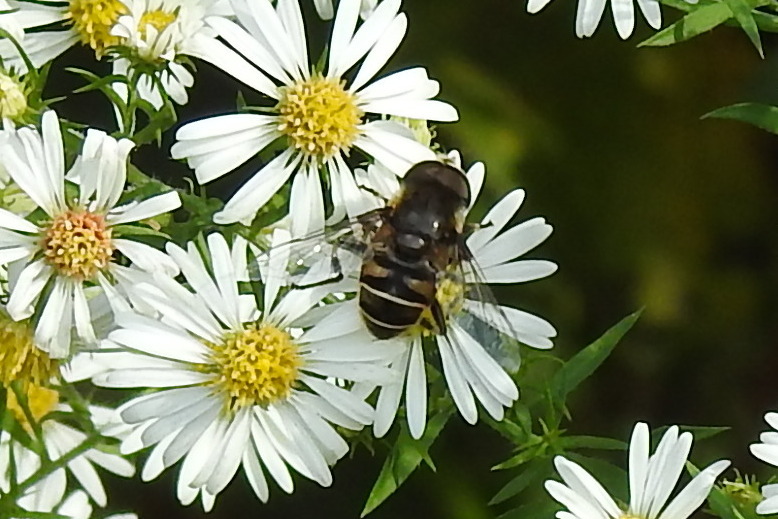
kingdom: Animalia
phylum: Arthropoda
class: Insecta
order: Diptera
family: Syrphidae
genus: Eristalis
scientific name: Eristalis dimidiata
